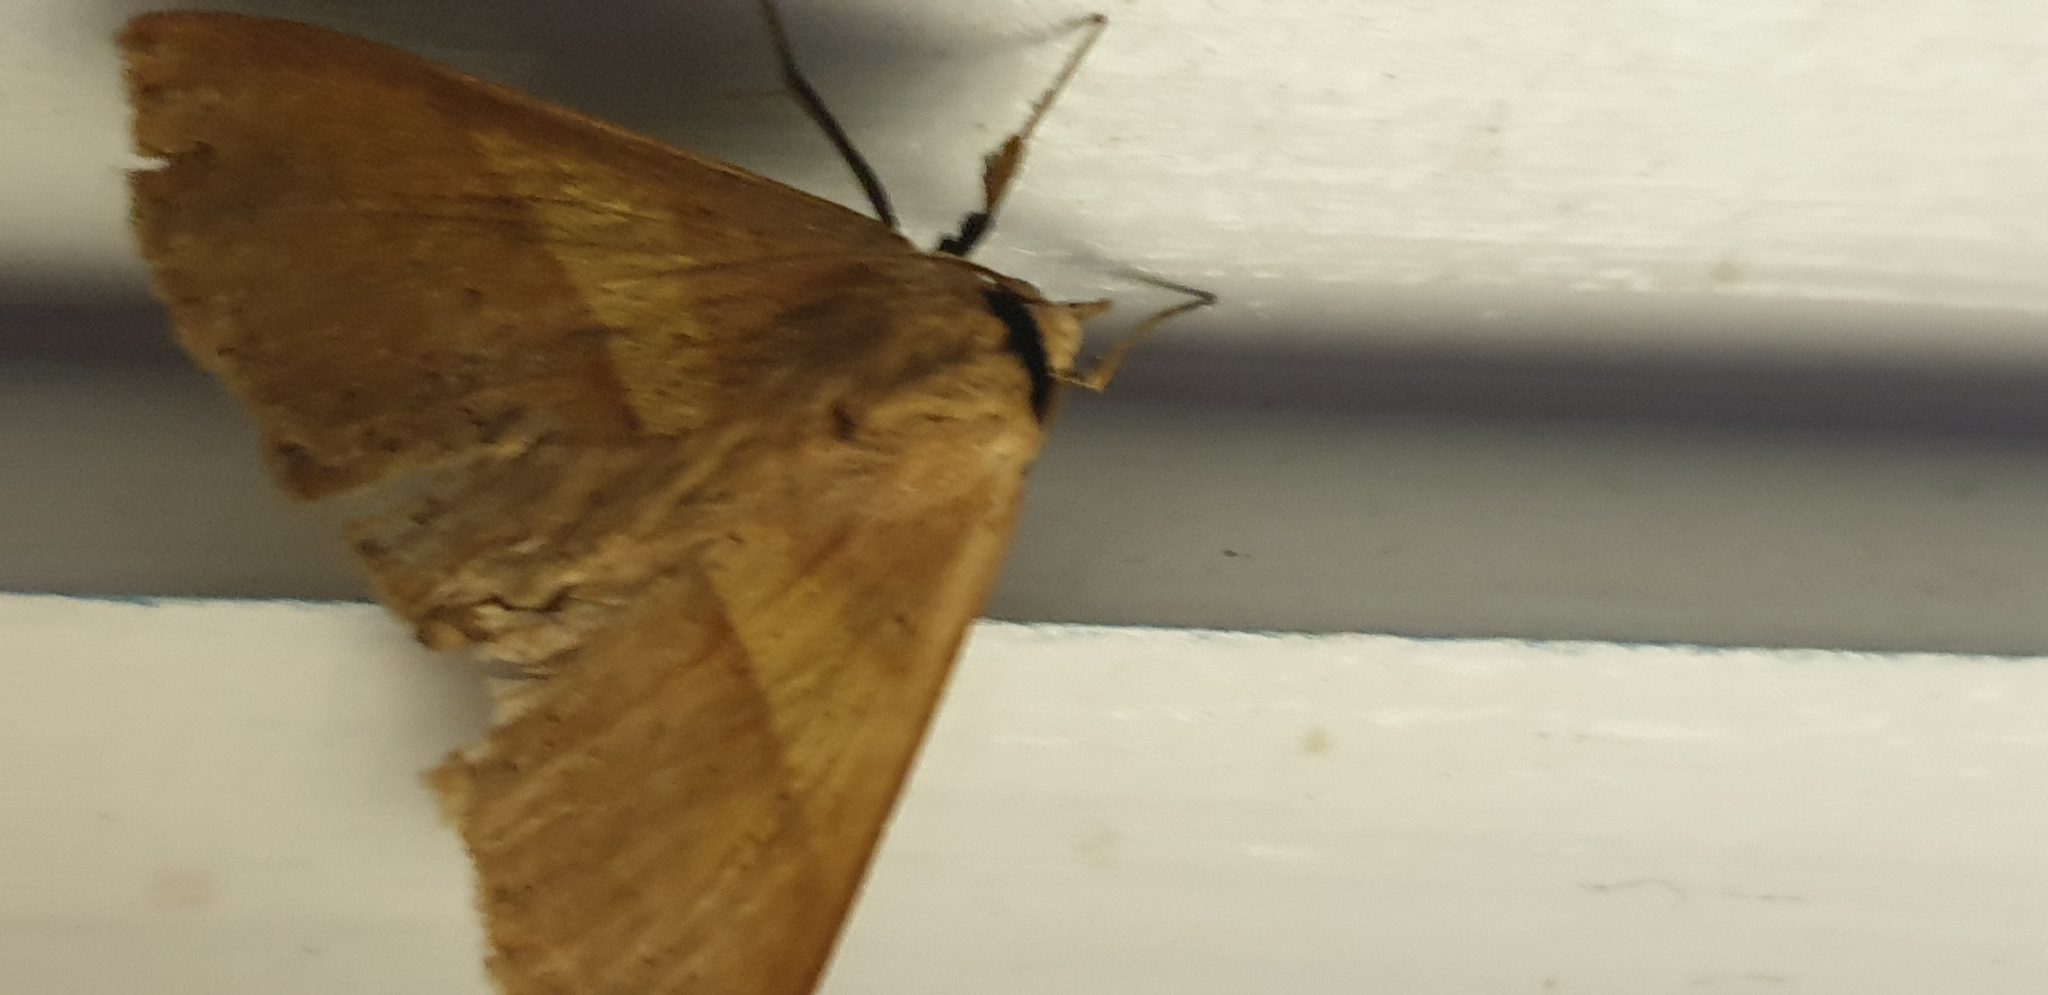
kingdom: Animalia
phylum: Arthropoda
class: Insecta
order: Lepidoptera
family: Erebidae
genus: Ophyx
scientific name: Ophyx eurrhoa
